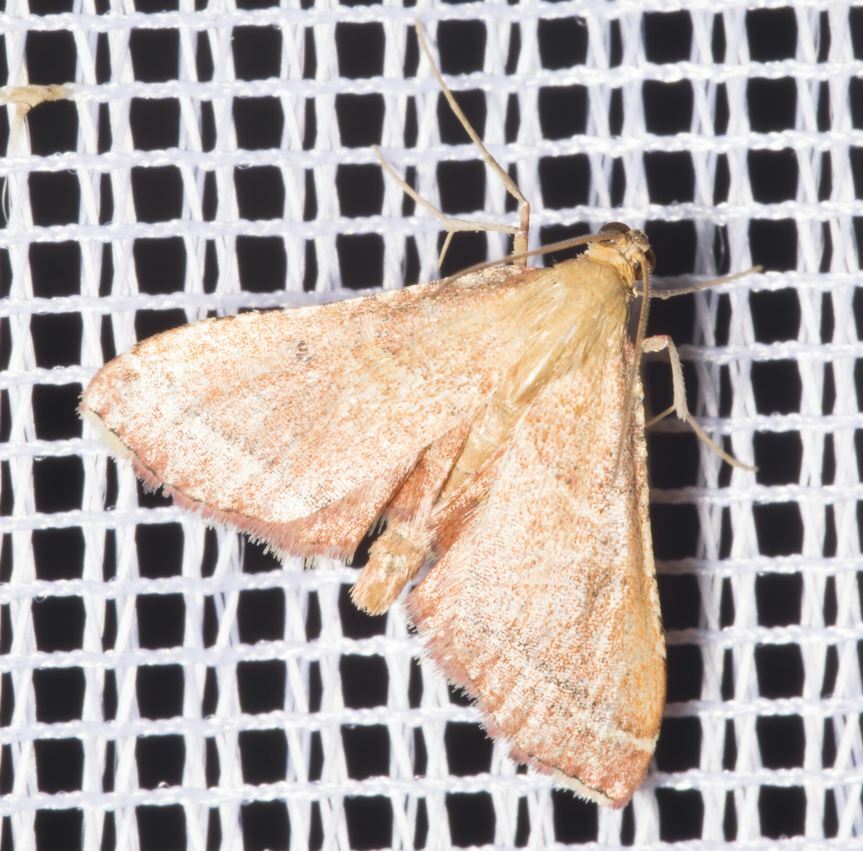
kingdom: Animalia
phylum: Arthropoda
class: Insecta
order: Lepidoptera
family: Pyralidae
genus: Endotricha
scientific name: Endotricha flammealis
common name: Rosy tabby
